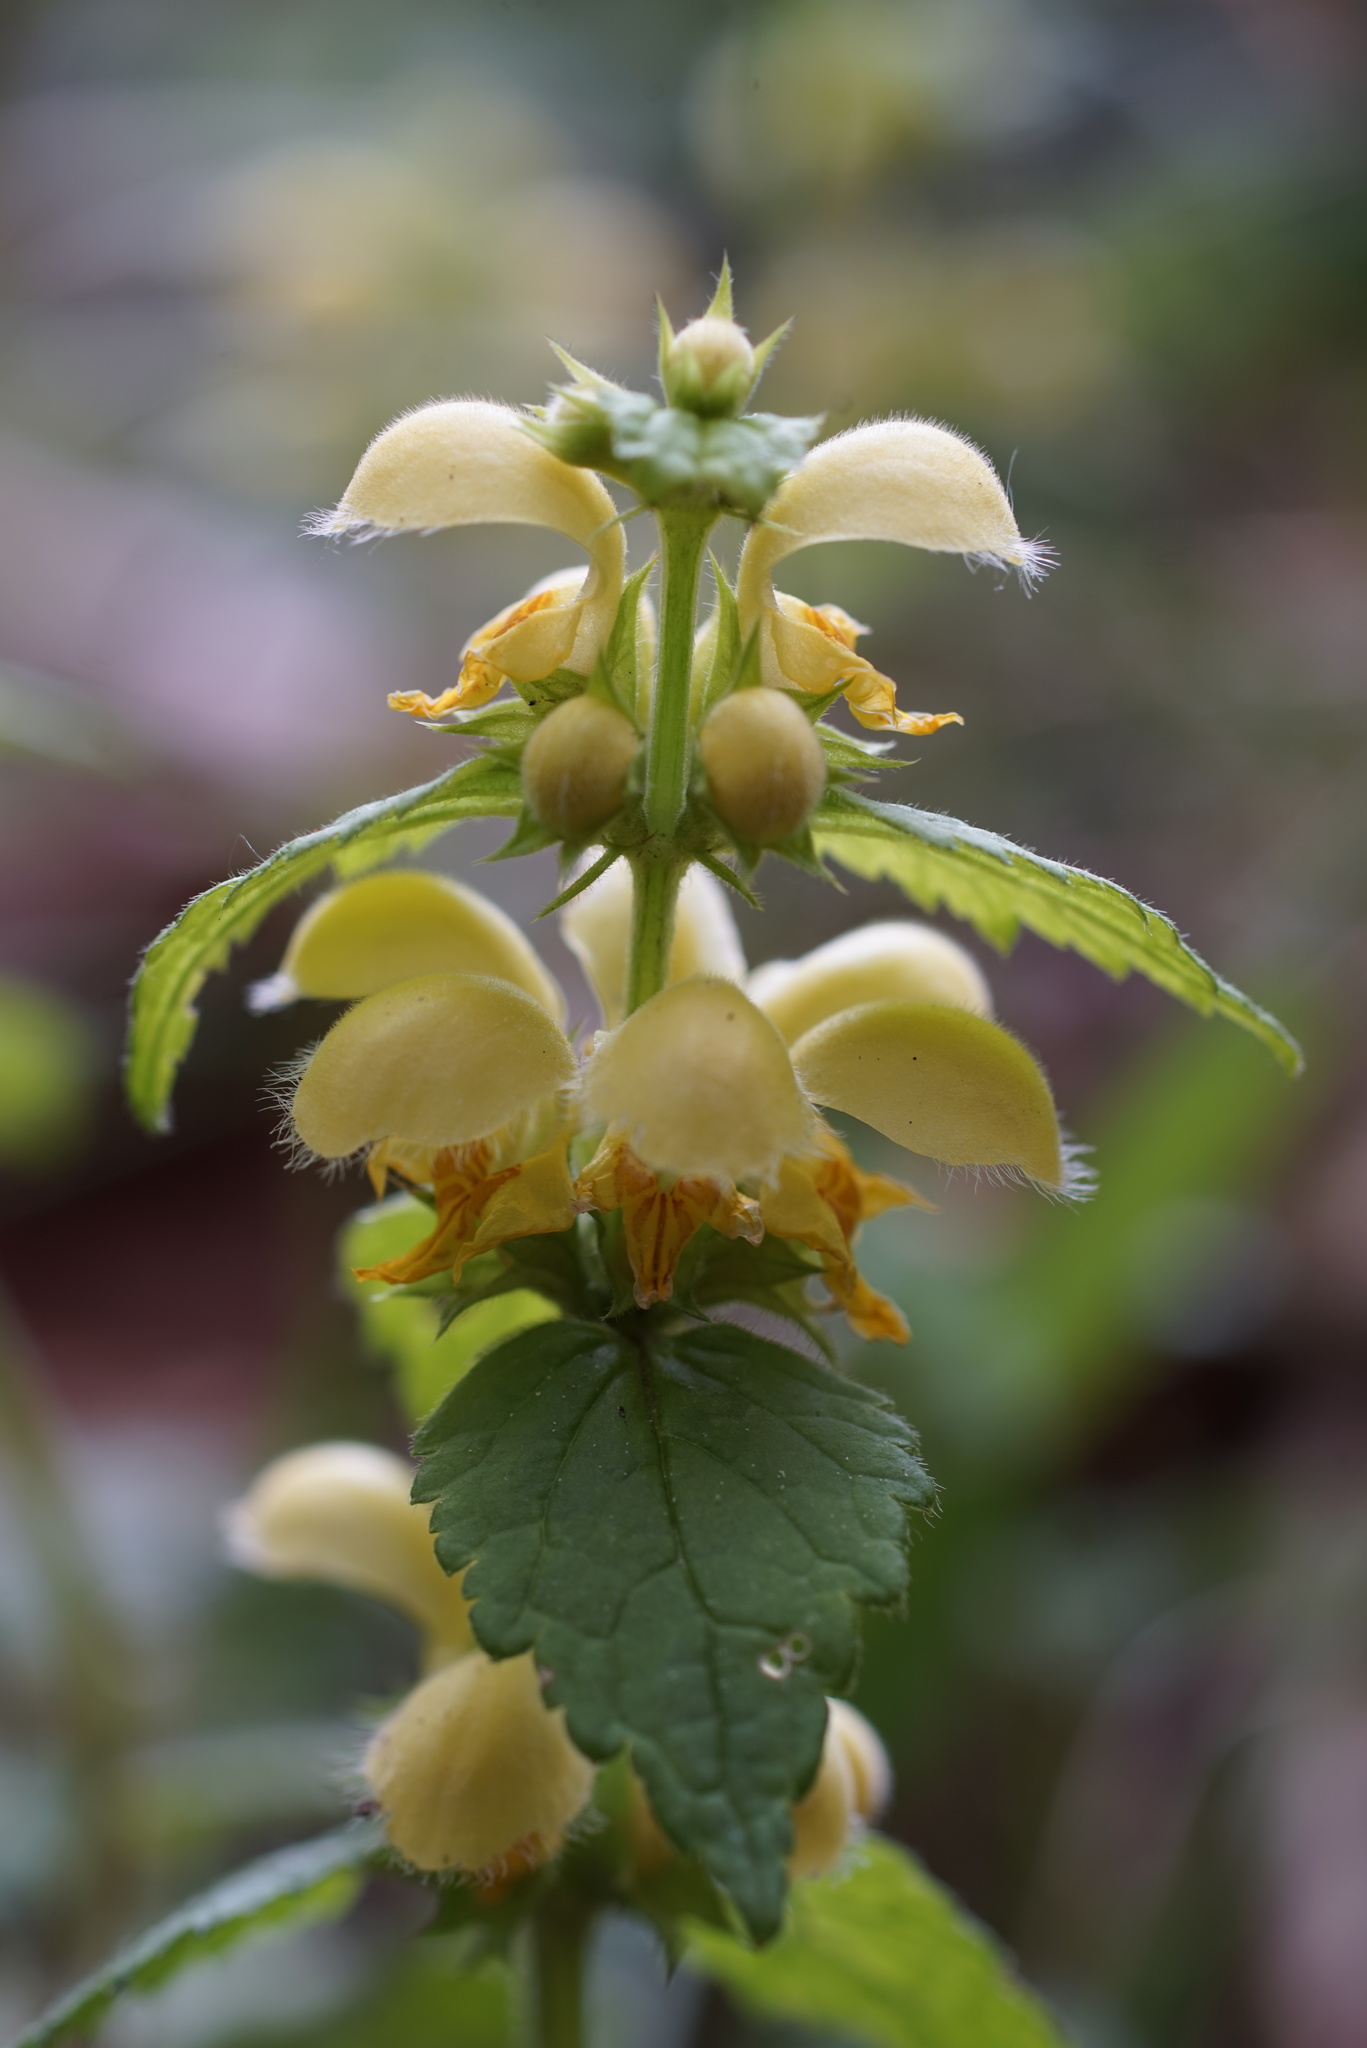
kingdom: Plantae
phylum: Tracheophyta
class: Magnoliopsida
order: Lamiales
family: Lamiaceae
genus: Lamium
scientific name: Lamium galeobdolon
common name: Yellow archangel
